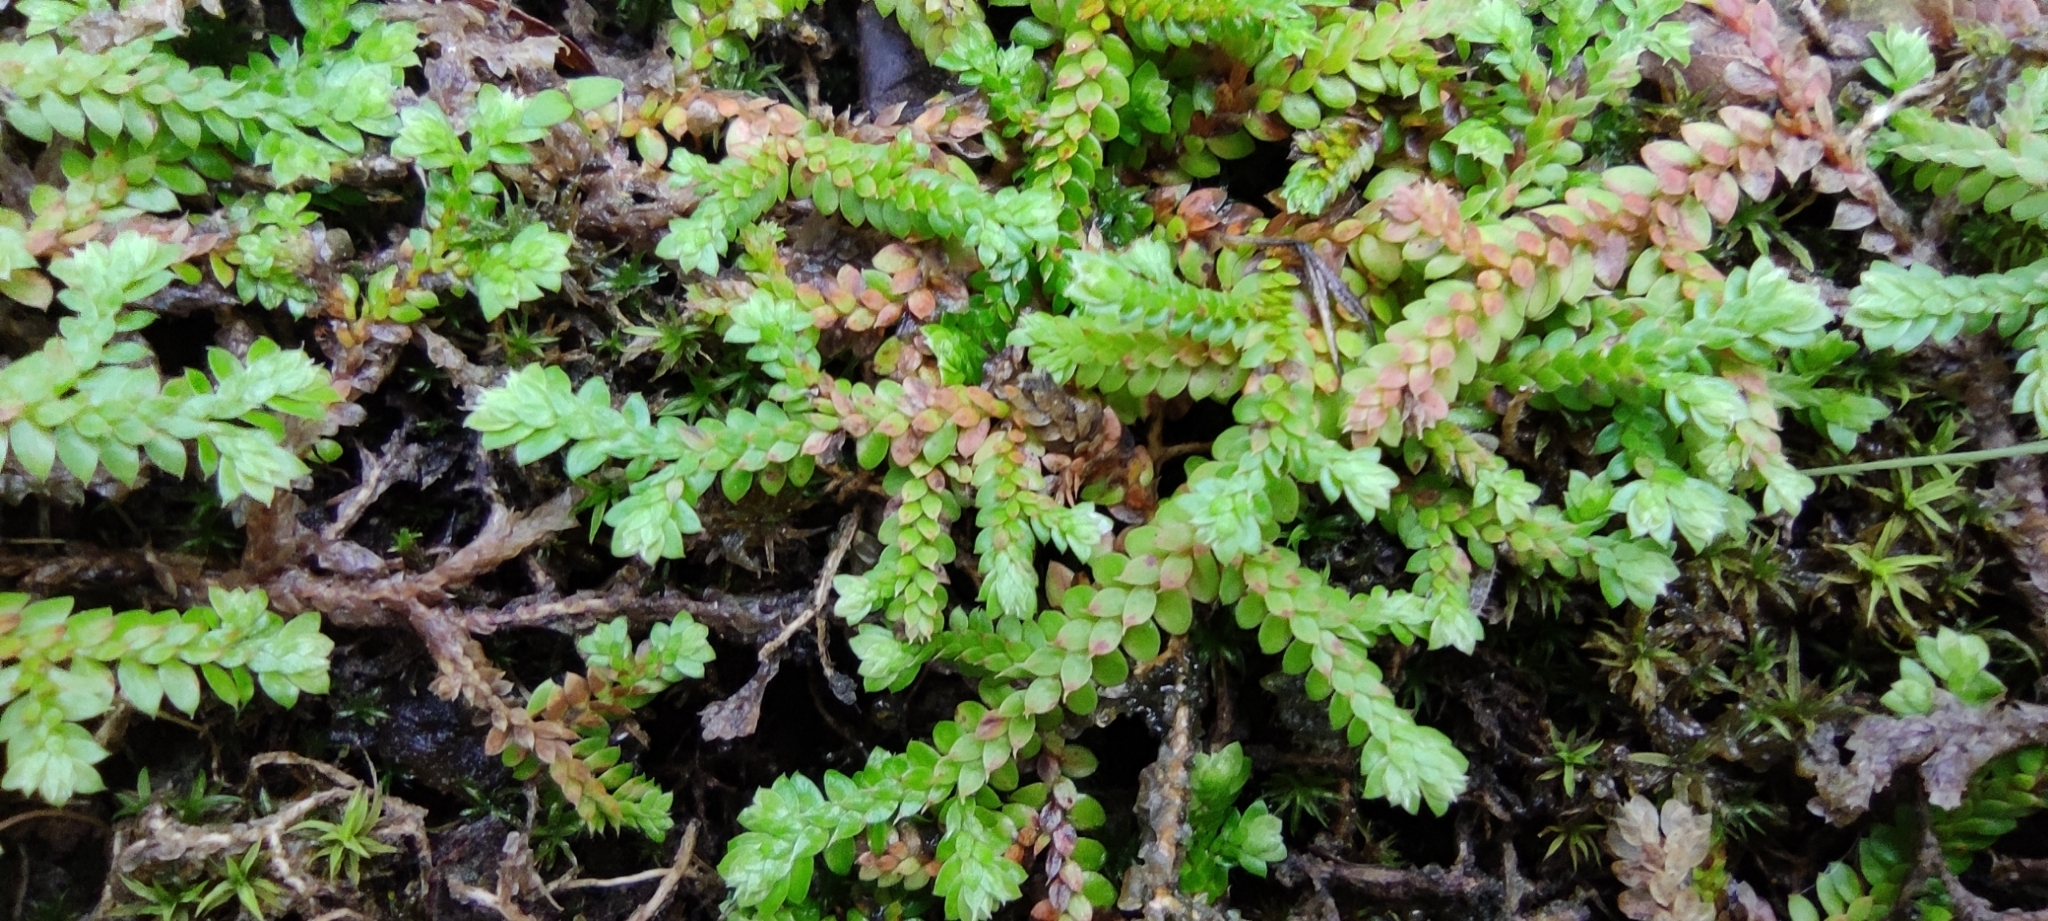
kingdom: Plantae
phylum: Tracheophyta
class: Lycopodiopsida
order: Selaginellales
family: Selaginellaceae
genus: Selaginella
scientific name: Selaginella denticulata
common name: Toothed-leaved clubmoss
